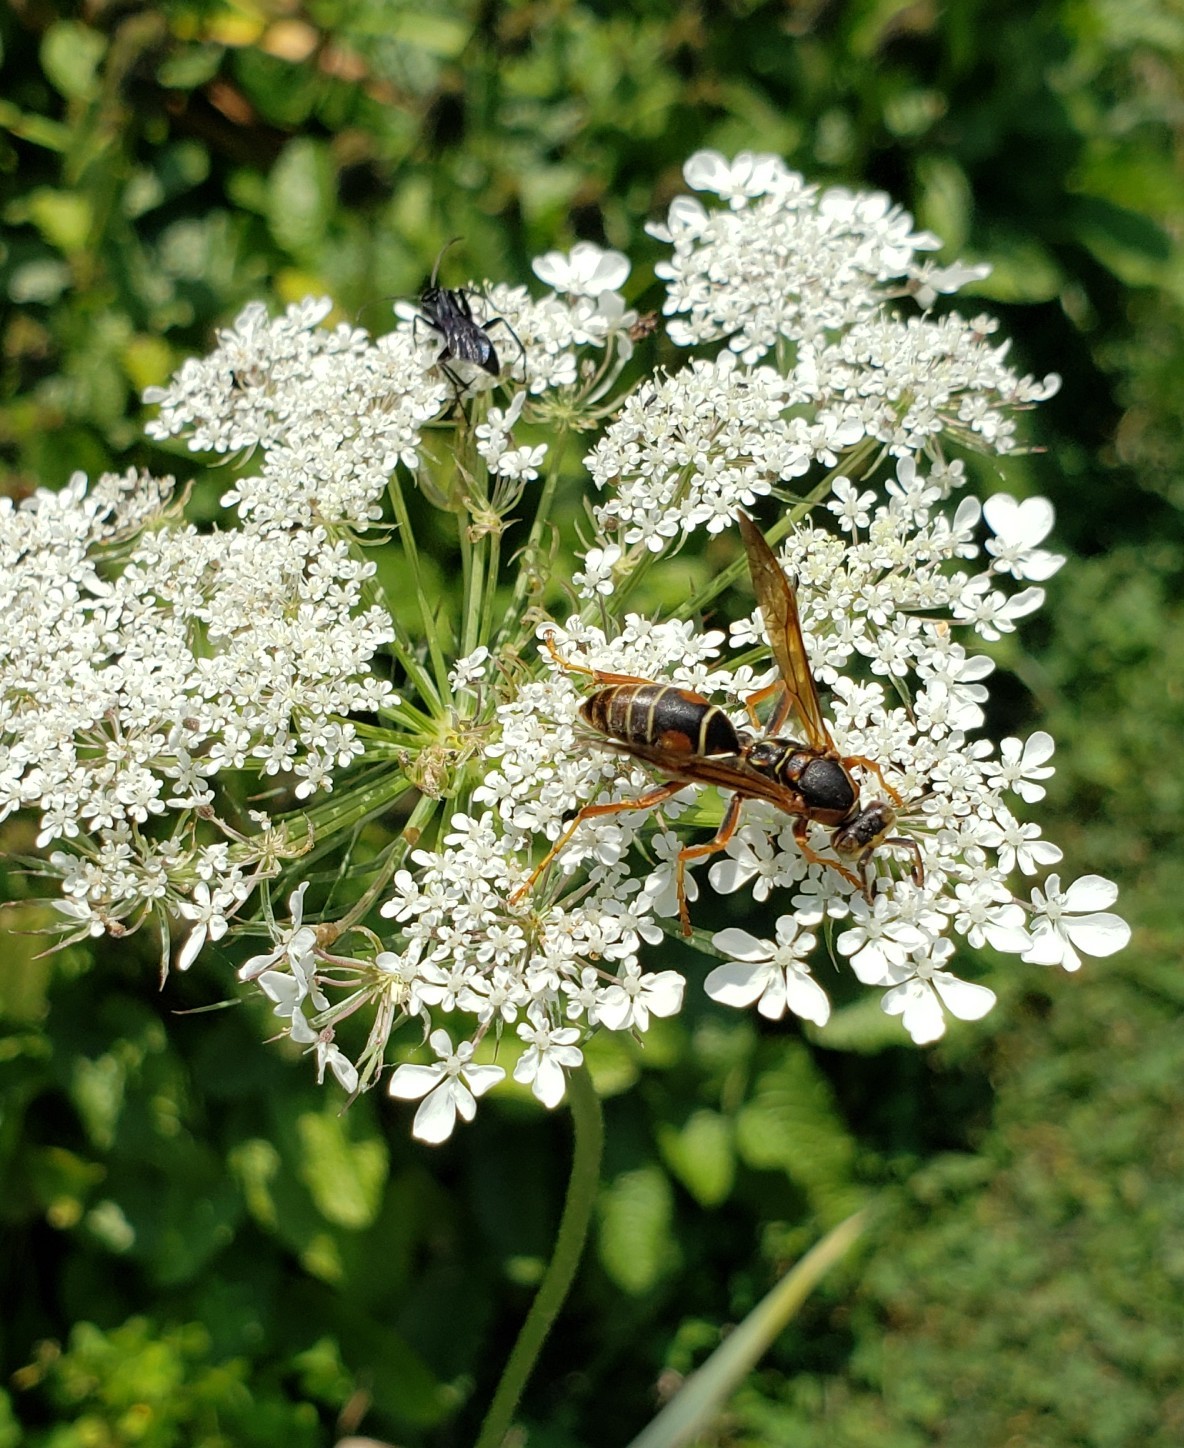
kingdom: Animalia
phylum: Arthropoda
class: Insecta
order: Hymenoptera
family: Eumenidae
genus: Polistes
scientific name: Polistes fuscatus
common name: Dark paper wasp
